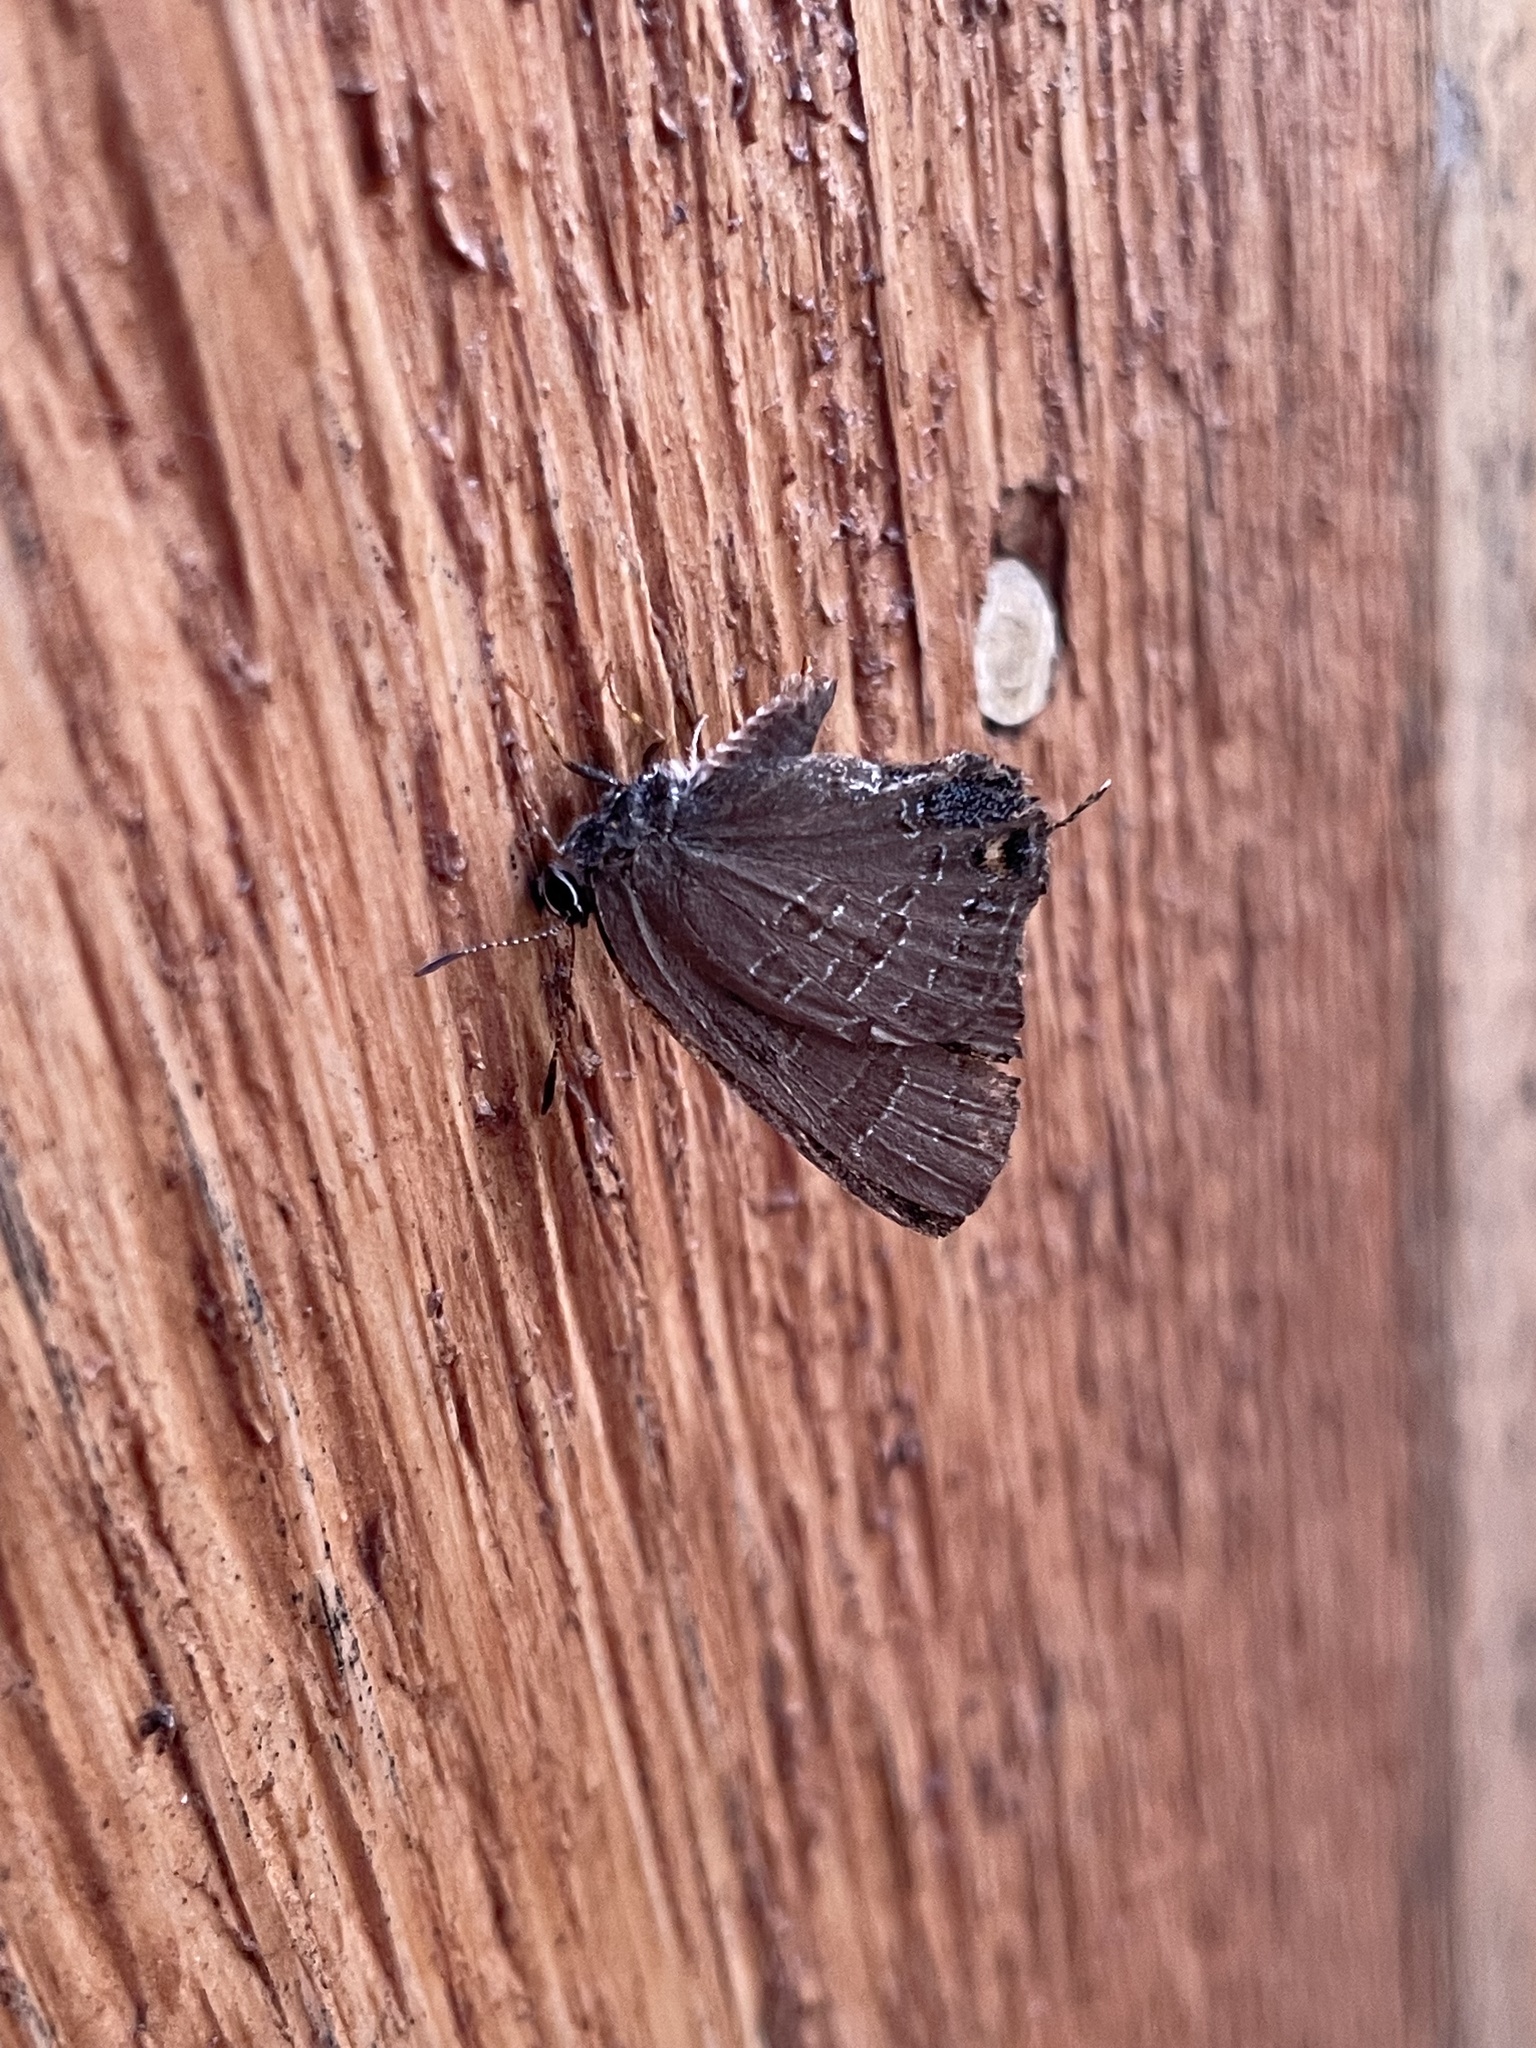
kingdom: Animalia
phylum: Arthropoda
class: Insecta
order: Lepidoptera
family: Lycaenidae
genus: Strymon
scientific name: Strymon caryaevorus
